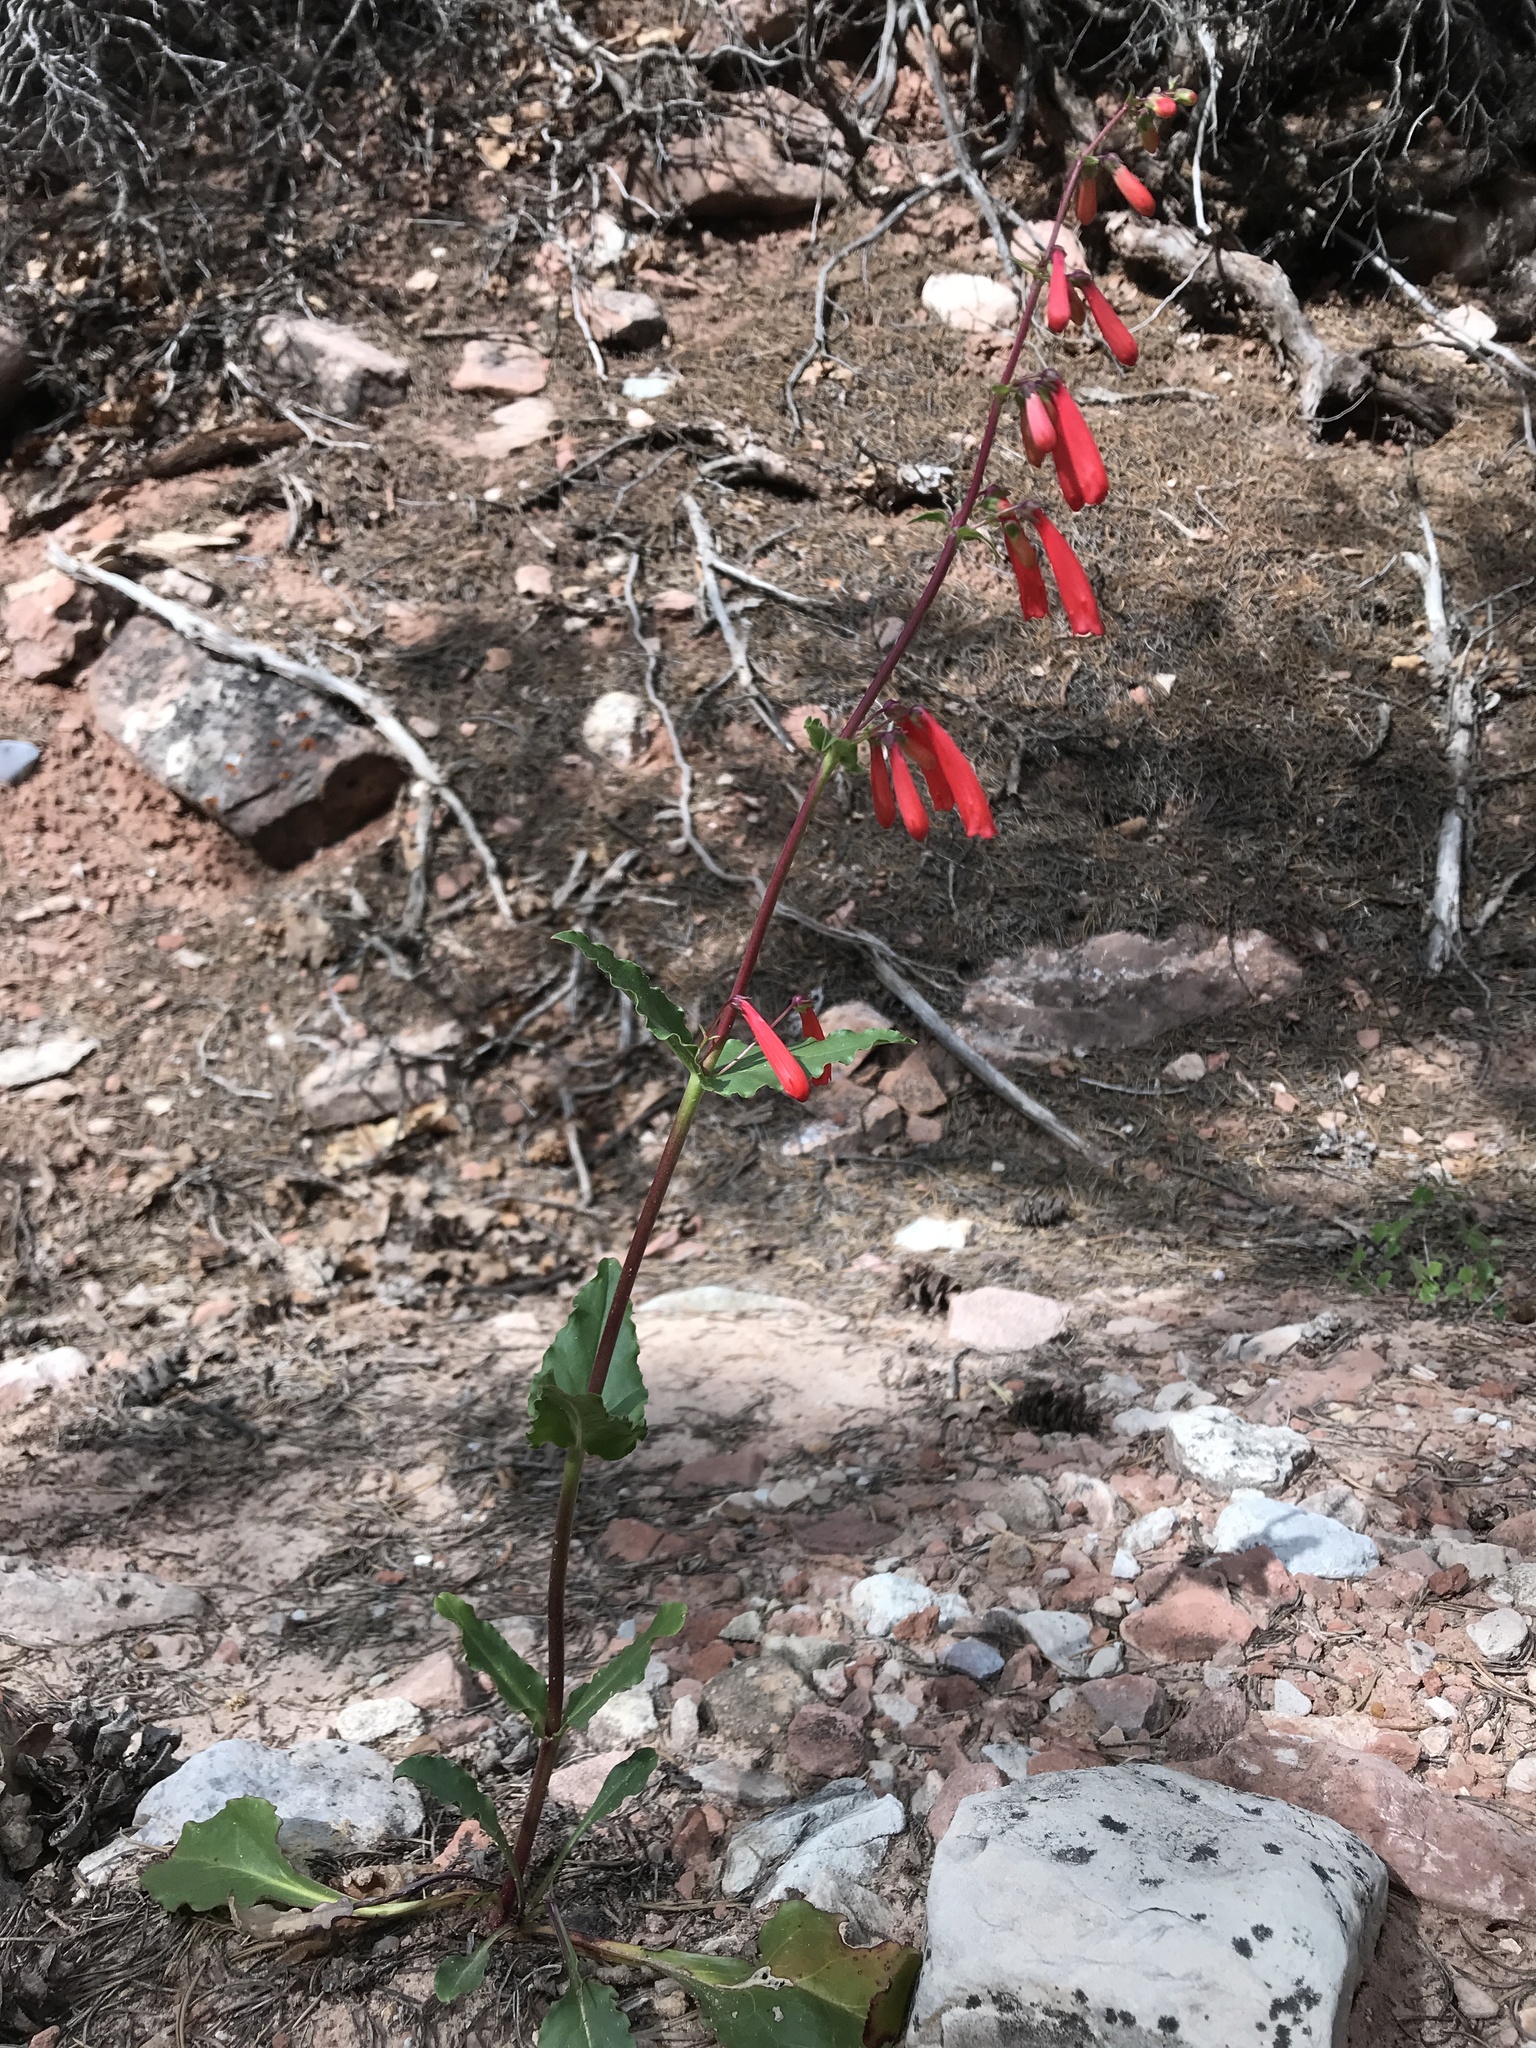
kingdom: Plantae
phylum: Tracheophyta
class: Magnoliopsida
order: Lamiales
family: Plantaginaceae
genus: Penstemon
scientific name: Penstemon eatonii
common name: Eaton's penstemon
